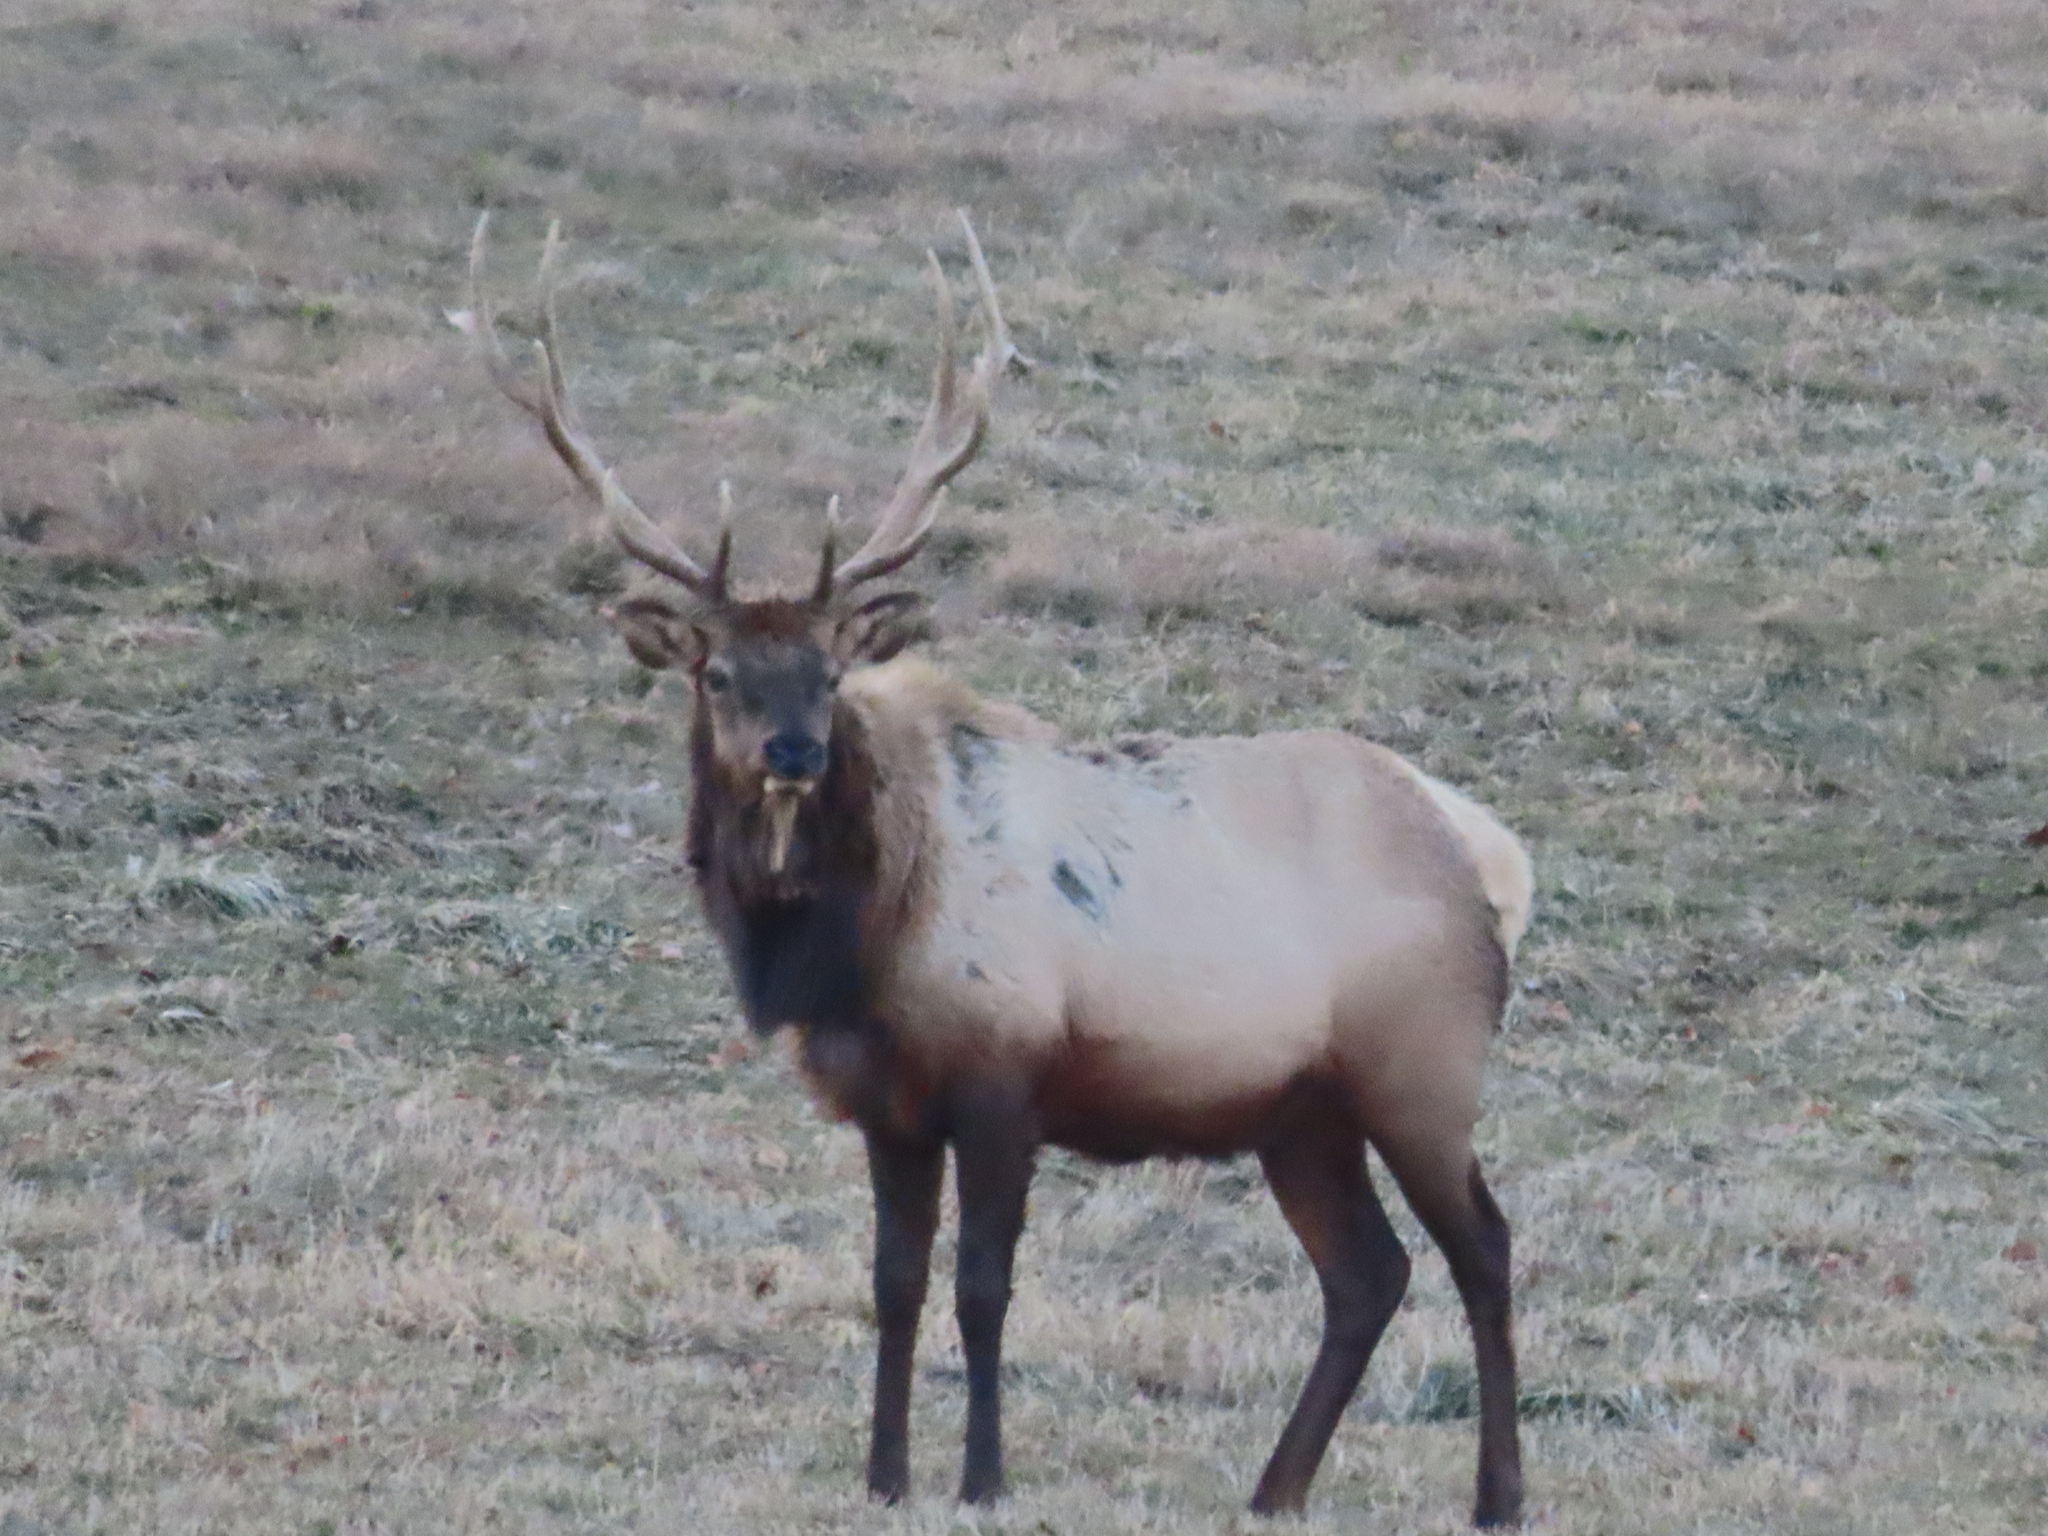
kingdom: Animalia
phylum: Chordata
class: Mammalia
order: Artiodactyla
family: Cervidae
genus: Cervus
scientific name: Cervus elaphus
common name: Red deer
